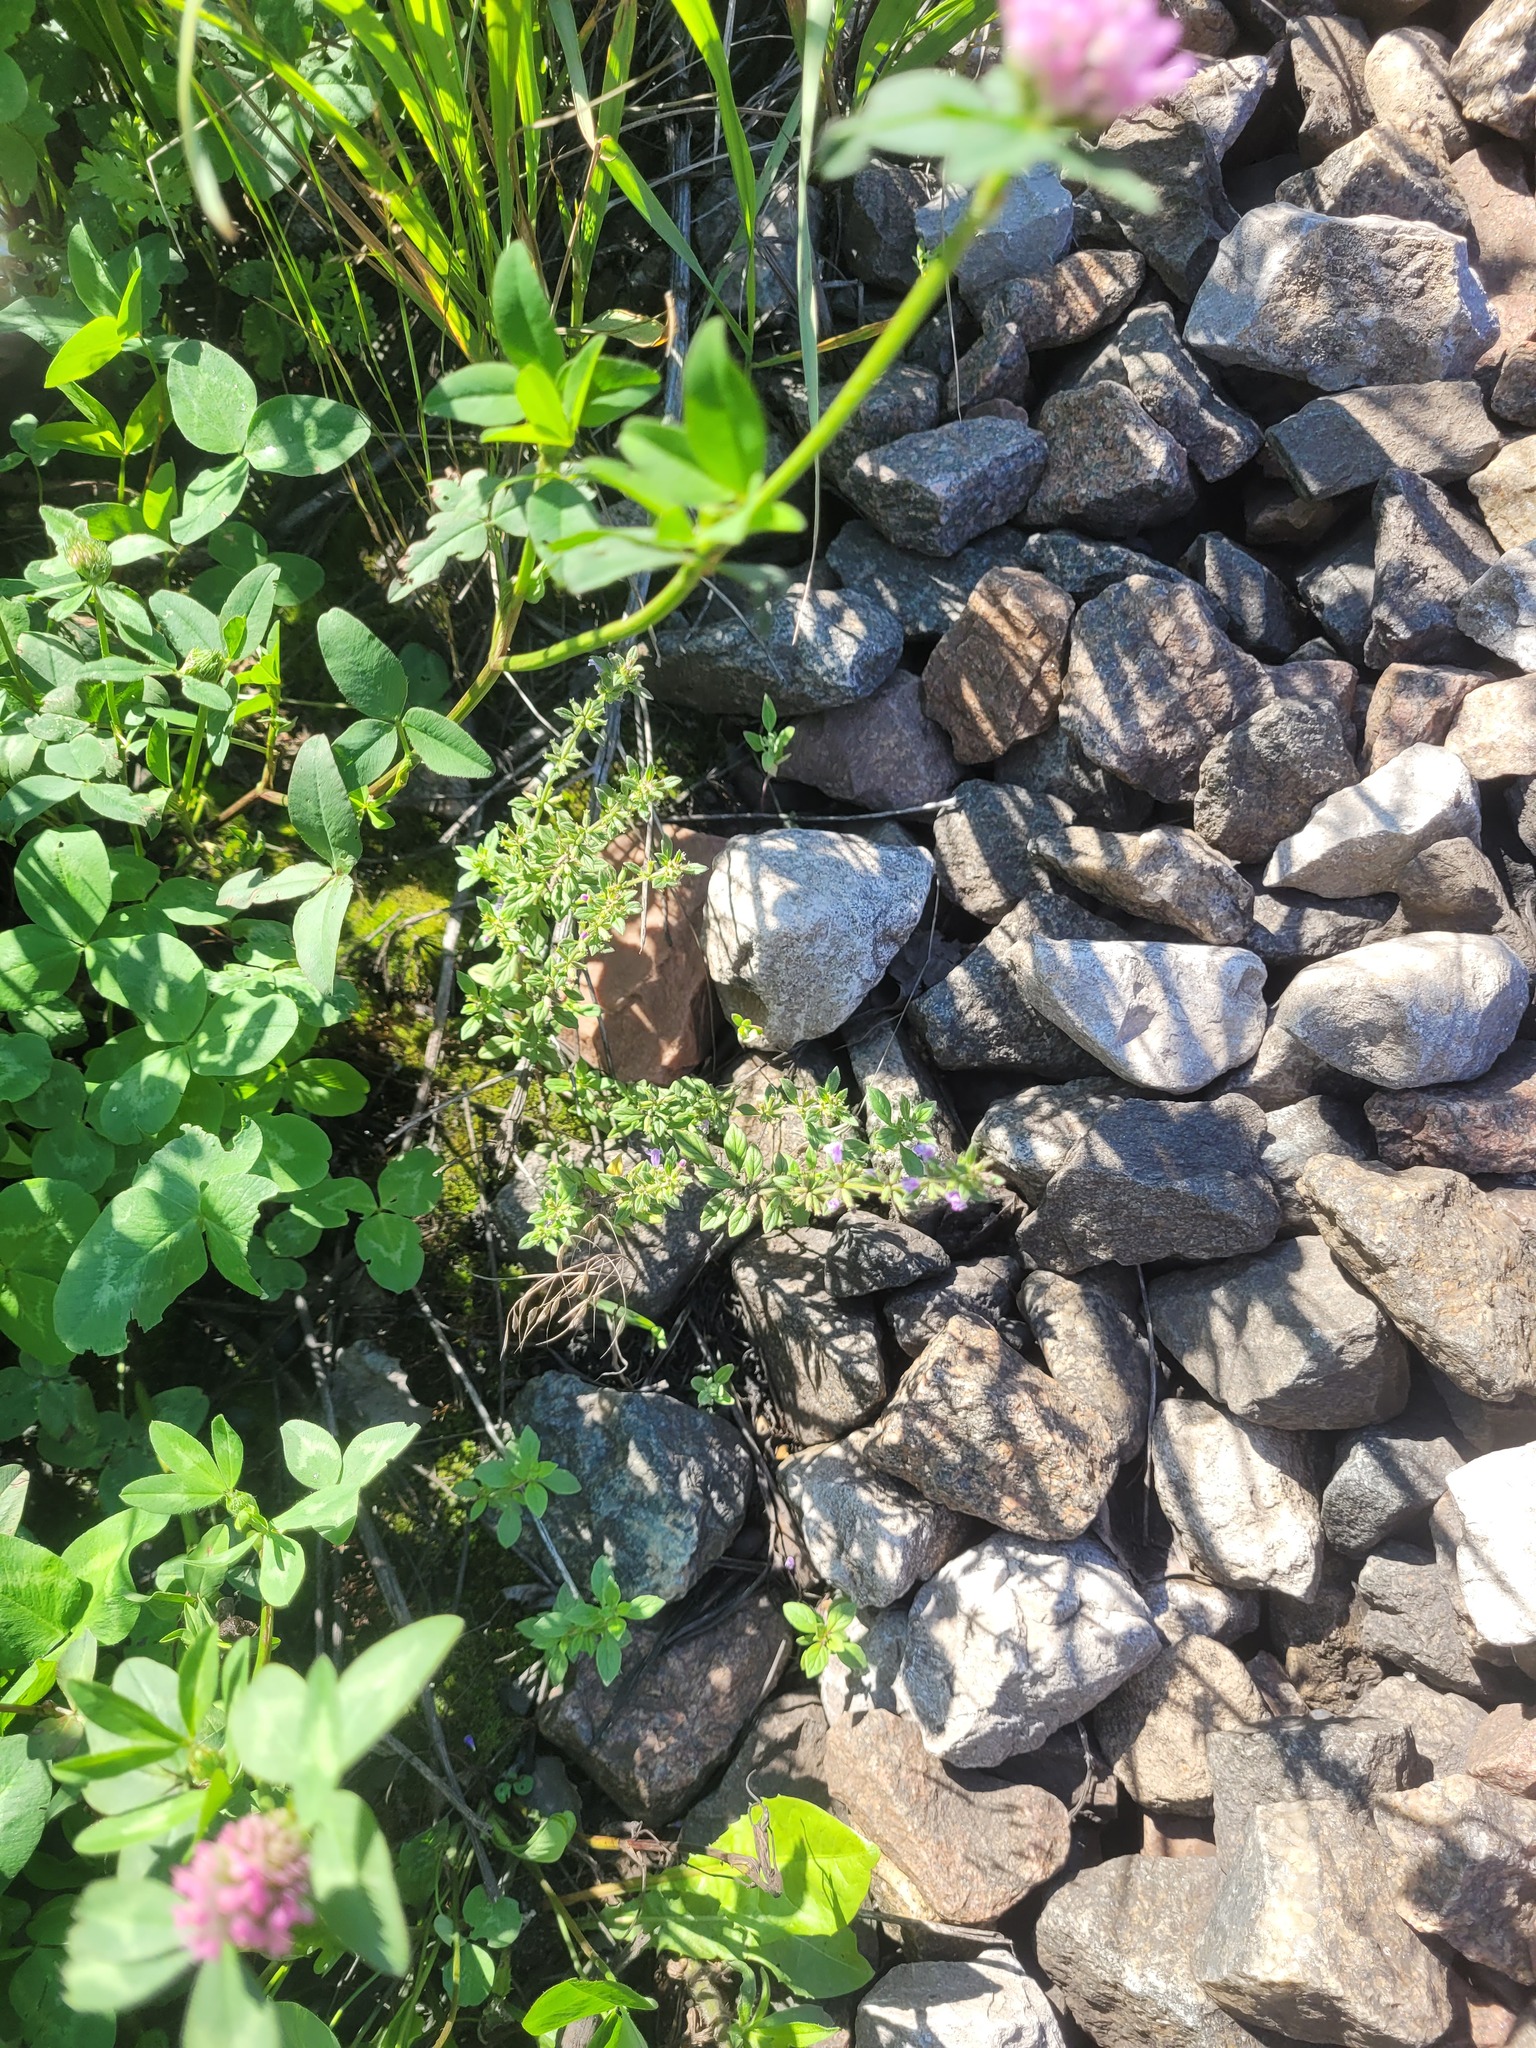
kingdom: Plantae
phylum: Tracheophyta
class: Magnoliopsida
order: Lamiales
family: Lamiaceae
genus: Clinopodium
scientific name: Clinopodium acinos
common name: Basil thyme
